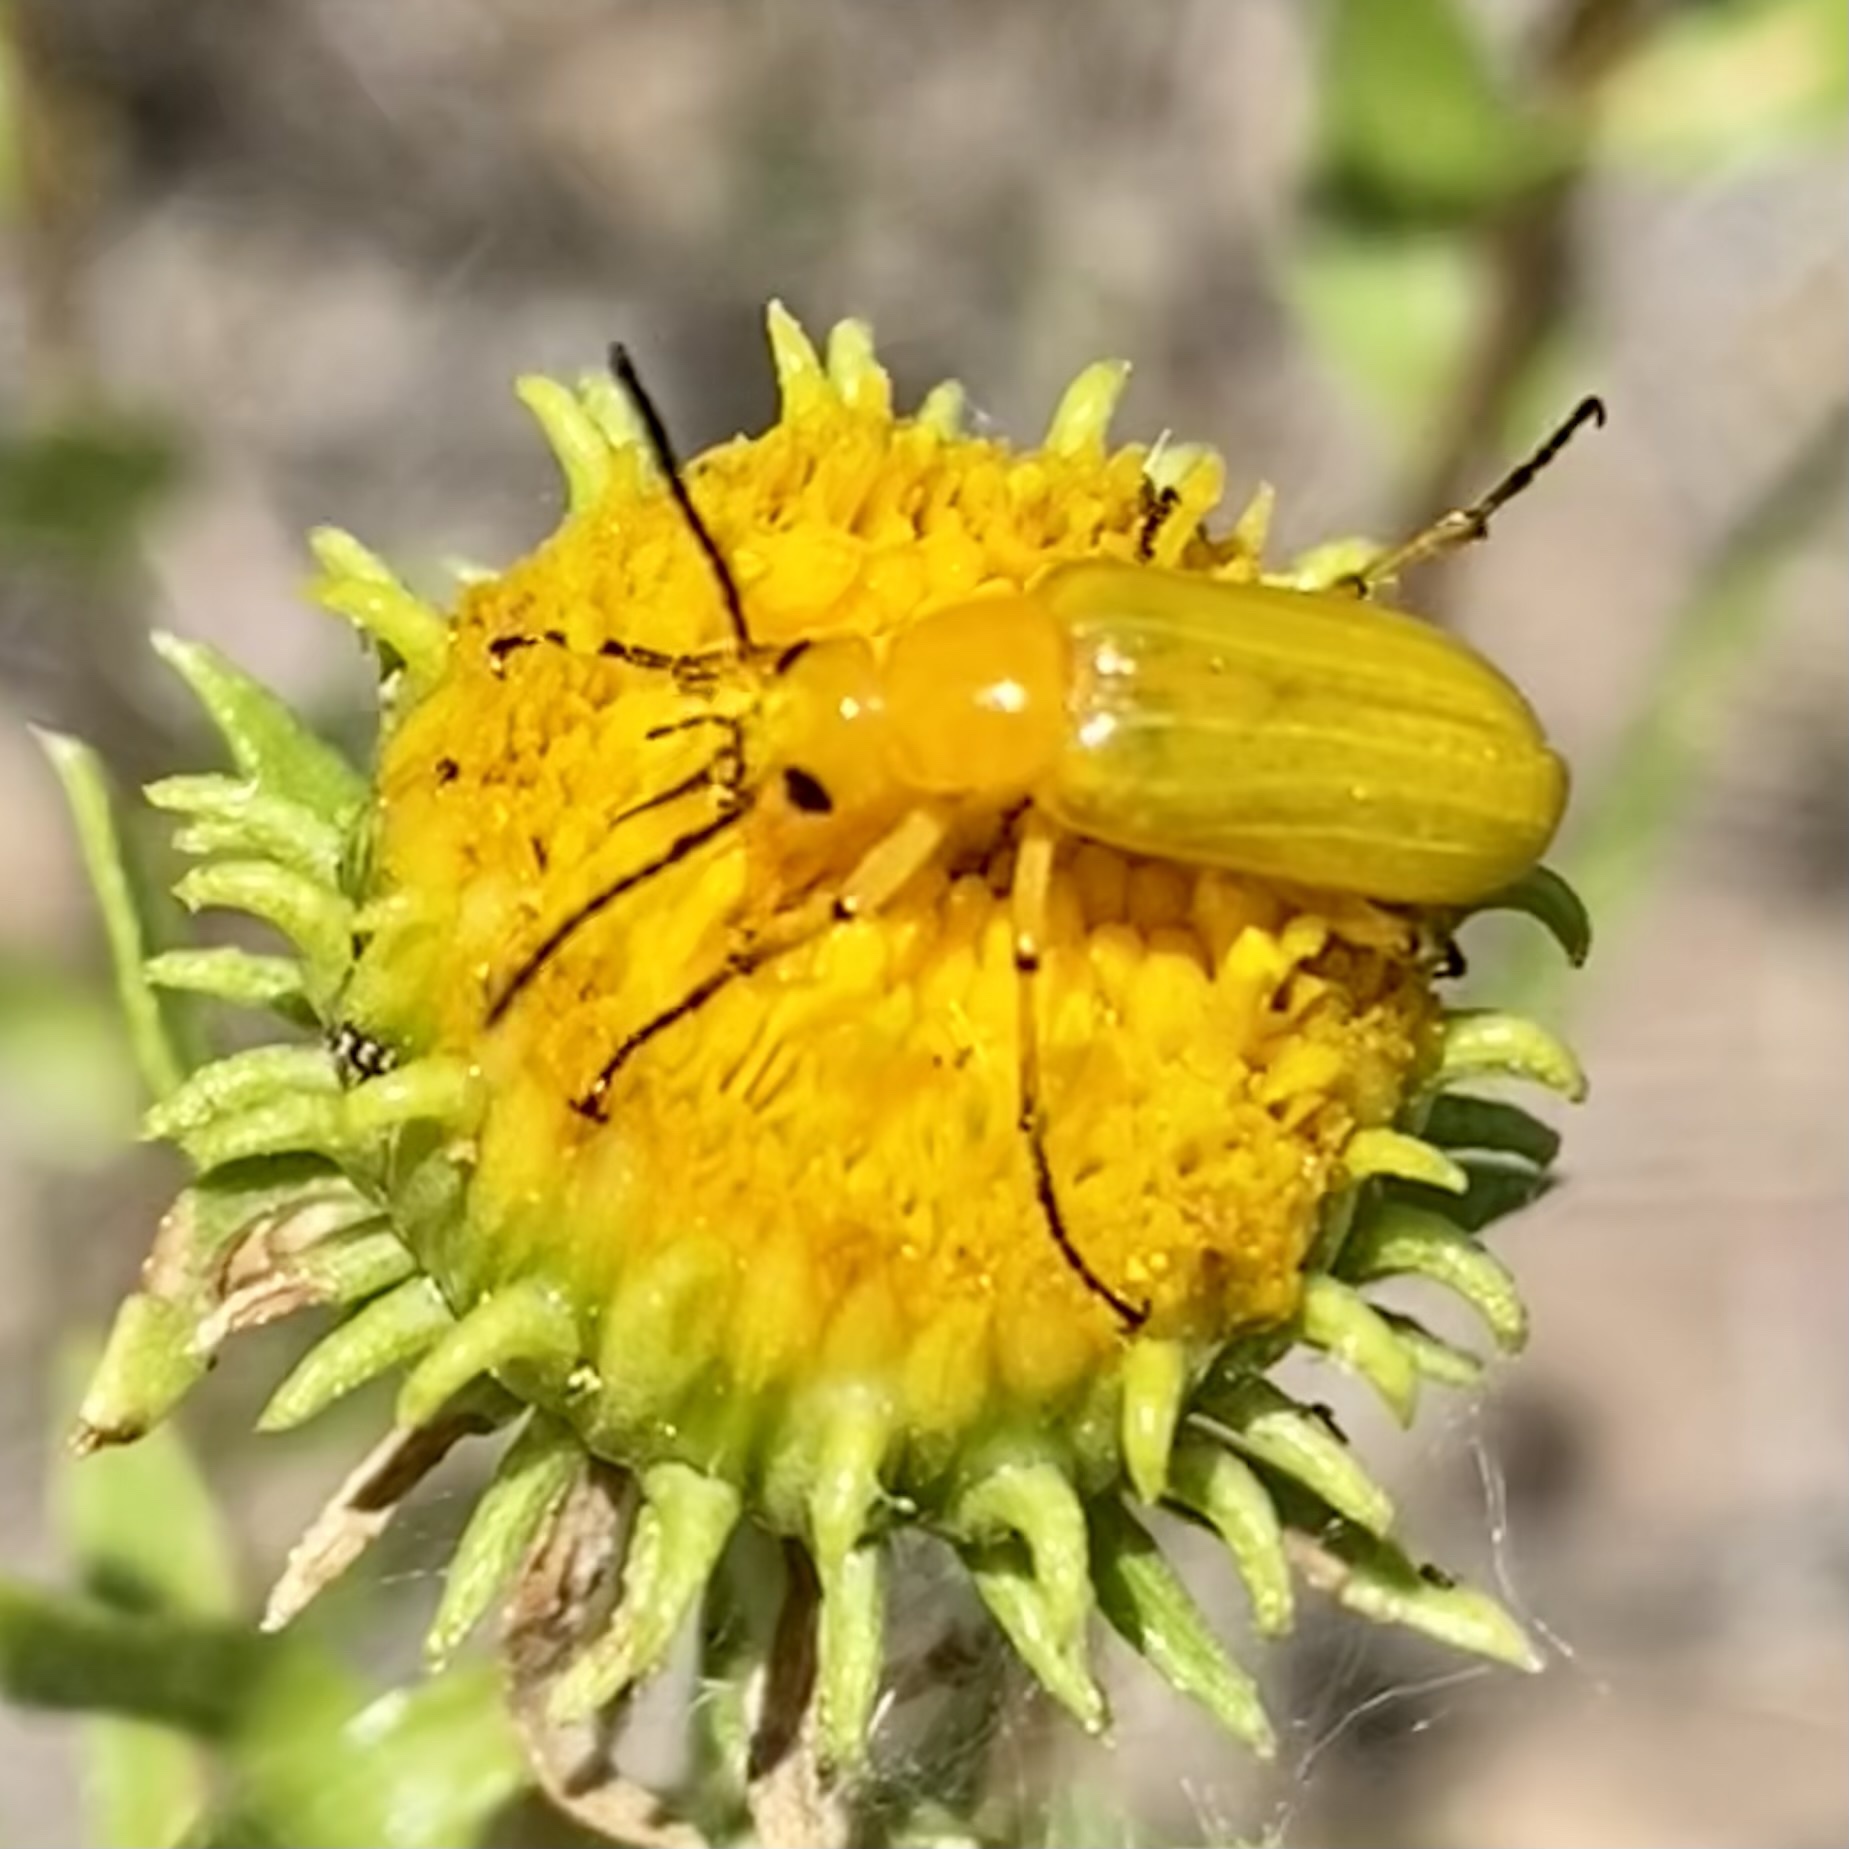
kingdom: Animalia
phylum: Arthropoda
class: Insecta
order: Coleoptera
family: Meloidae
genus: Zonitis
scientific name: Zonitis sayi
